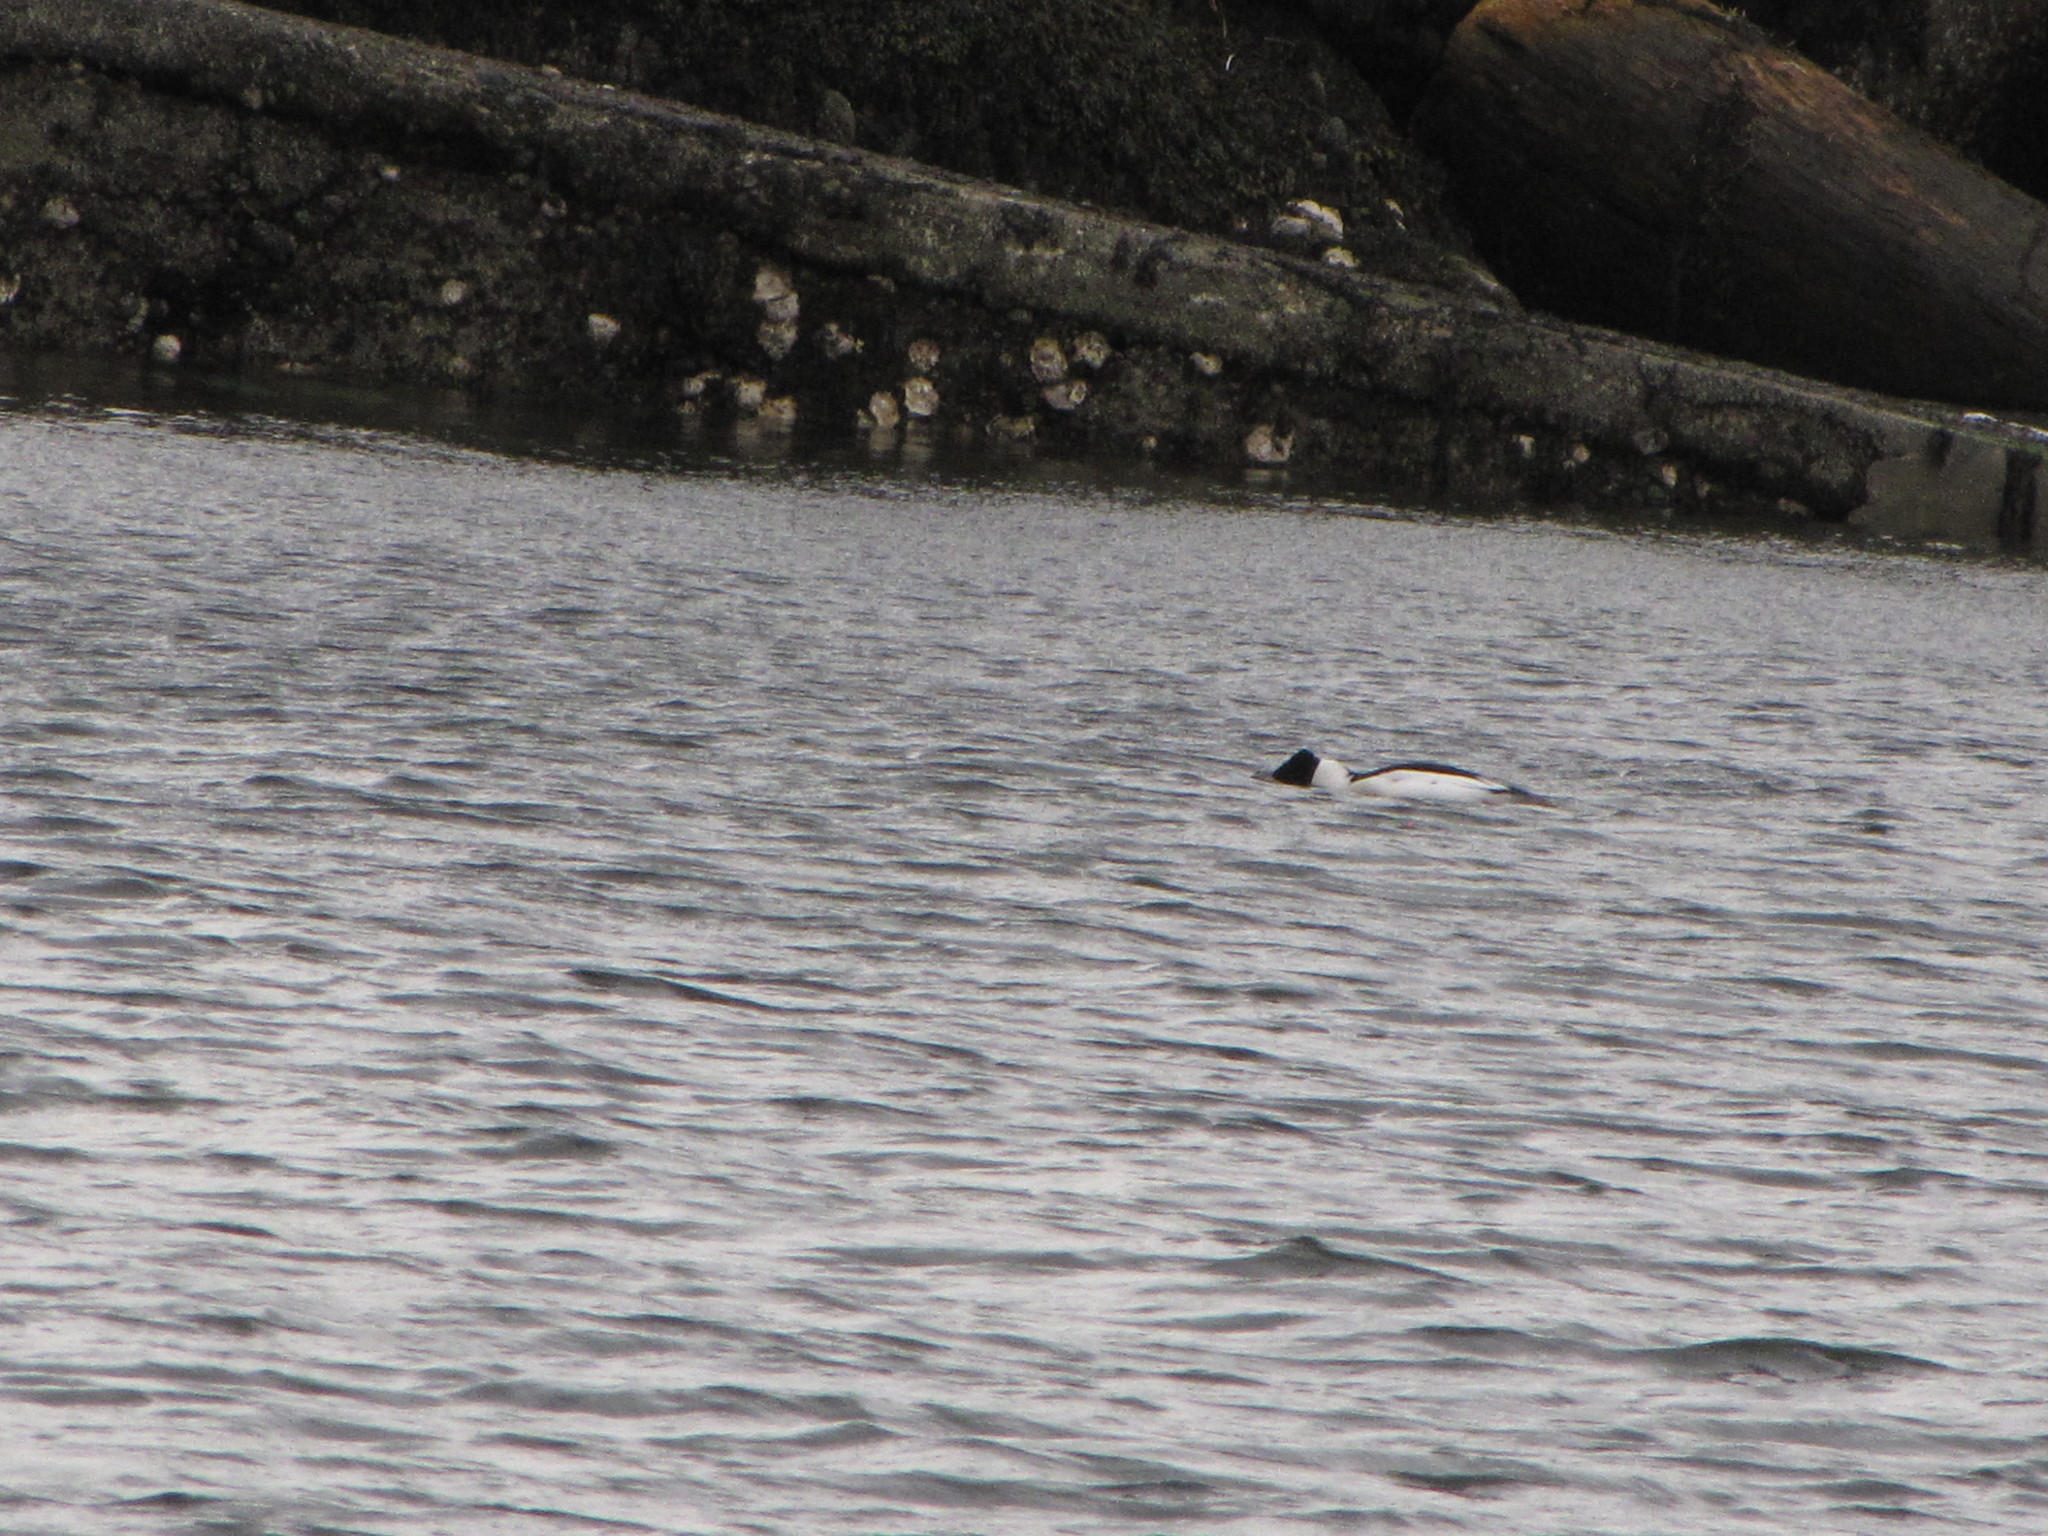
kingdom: Animalia
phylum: Chordata
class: Aves
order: Anseriformes
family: Anatidae
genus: Mergus
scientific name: Mergus merganser
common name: Common merganser
